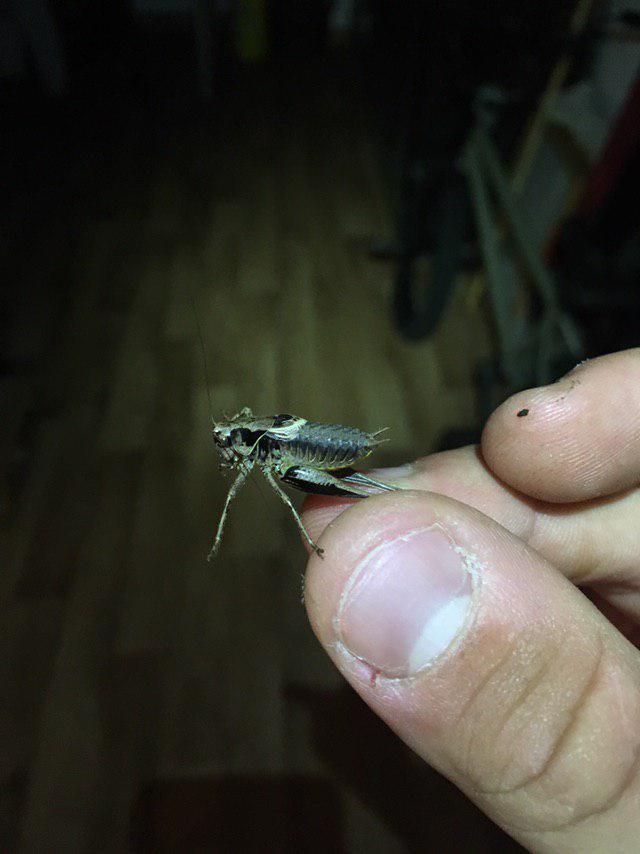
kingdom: Animalia
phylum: Arthropoda
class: Insecta
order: Orthoptera
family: Tettigoniidae
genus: Pholidoptera
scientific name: Pholidoptera griseoaptera
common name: Dark bush-cricket
